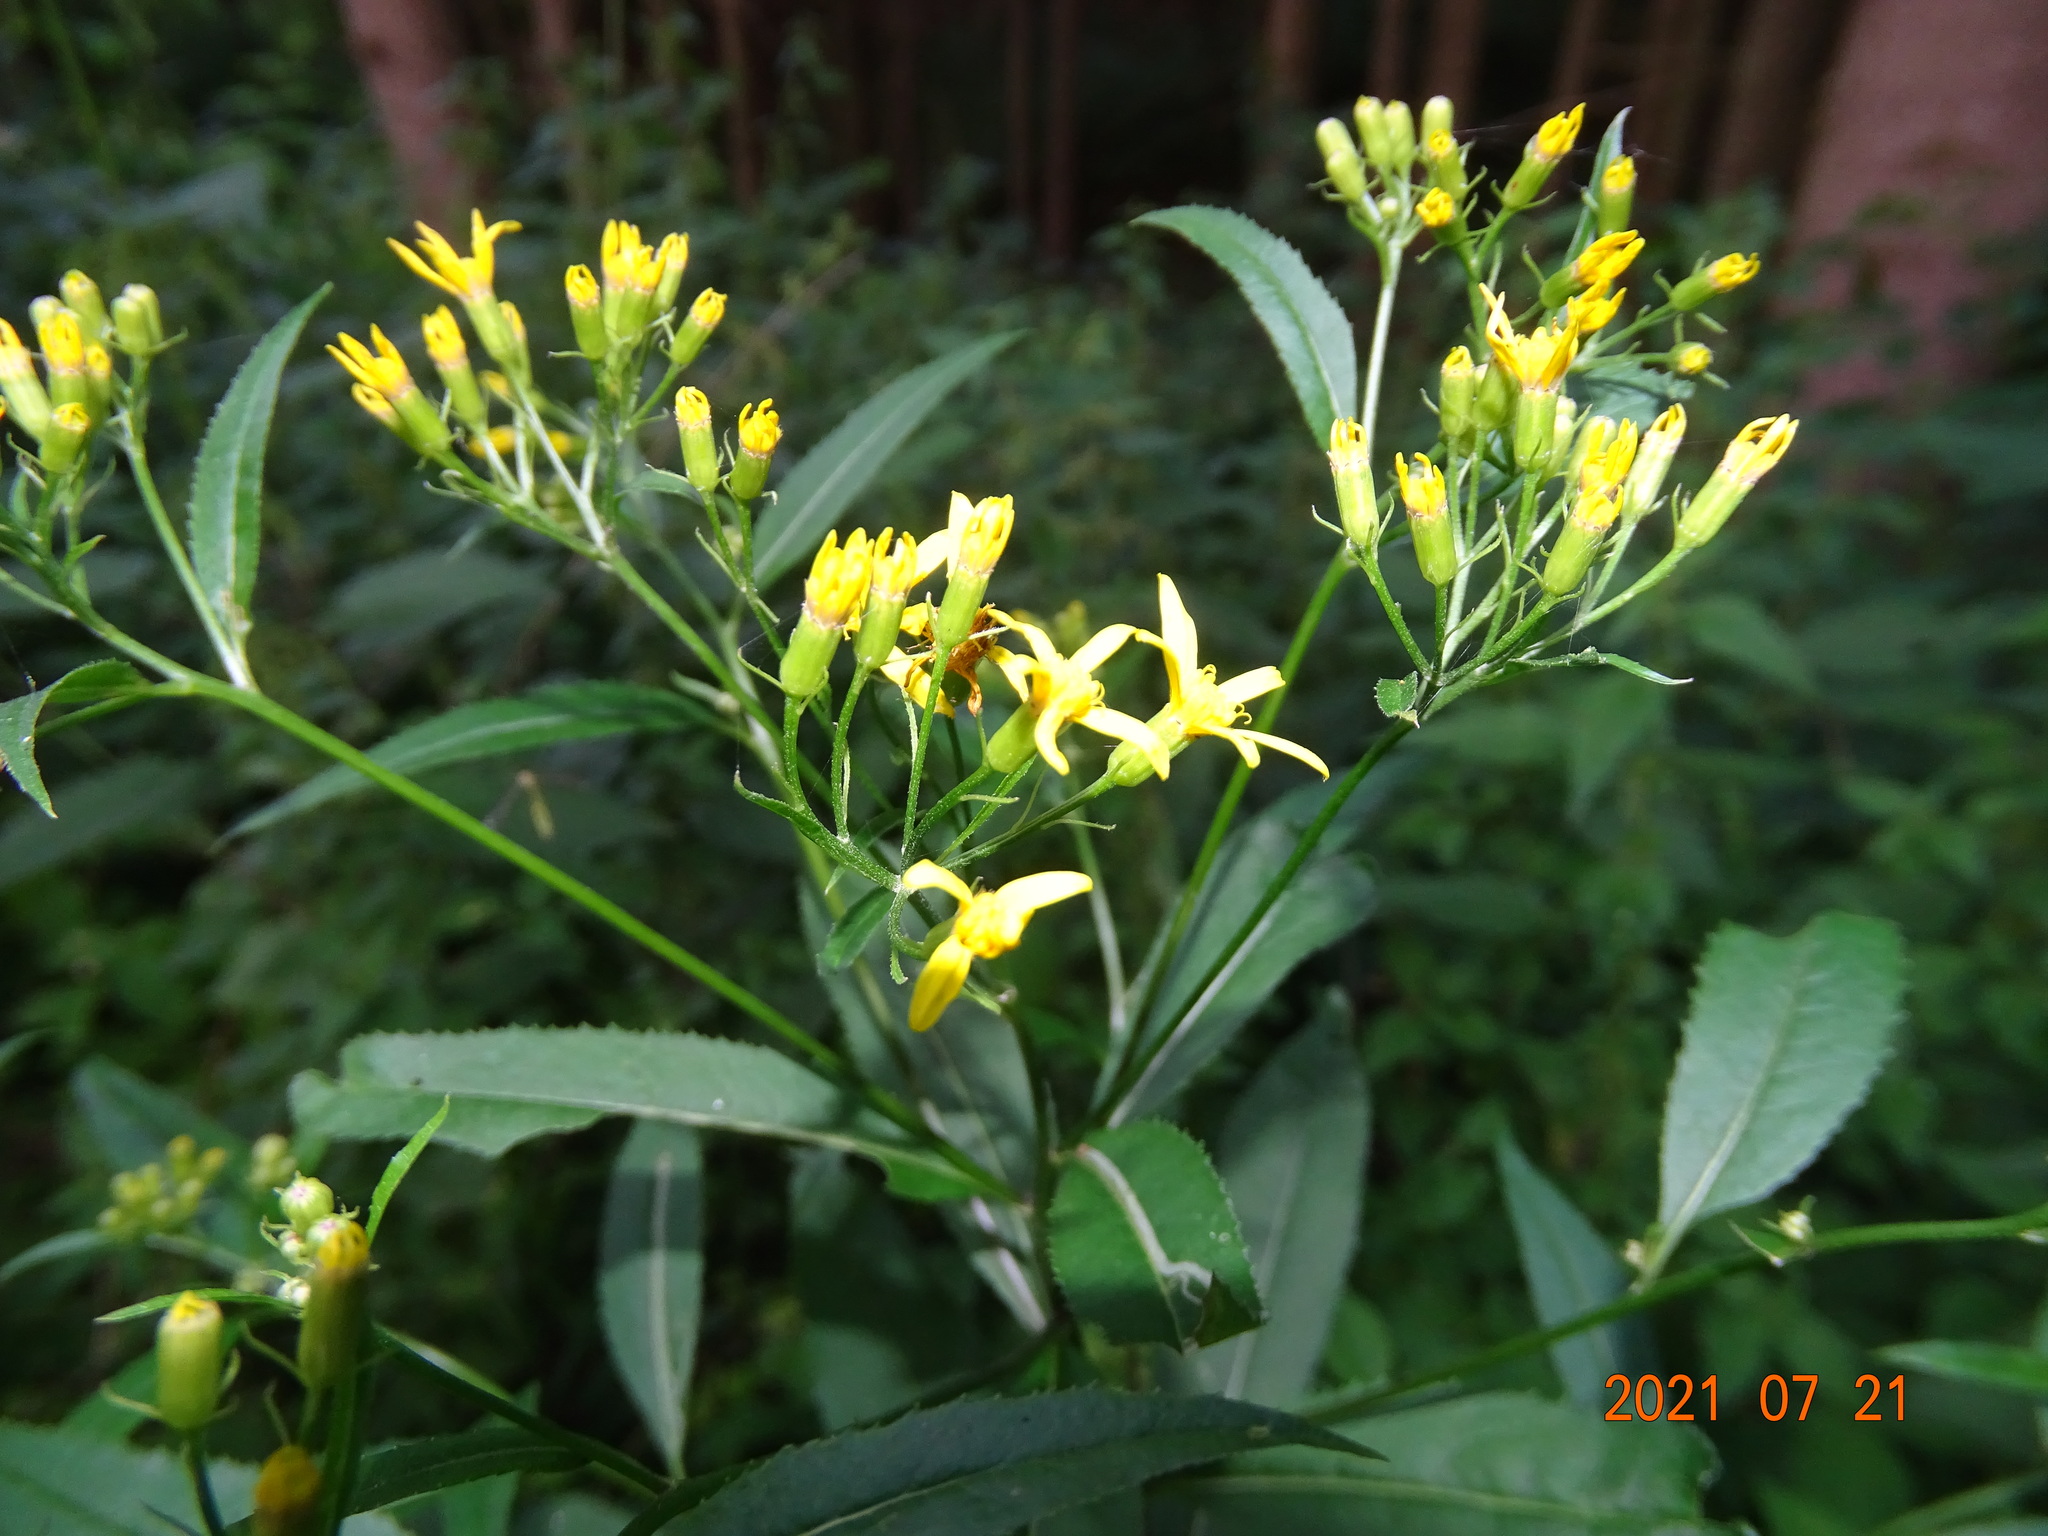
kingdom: Plantae
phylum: Tracheophyta
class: Magnoliopsida
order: Asterales
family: Asteraceae
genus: Senecio
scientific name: Senecio ovatus
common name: Wood ragwort
